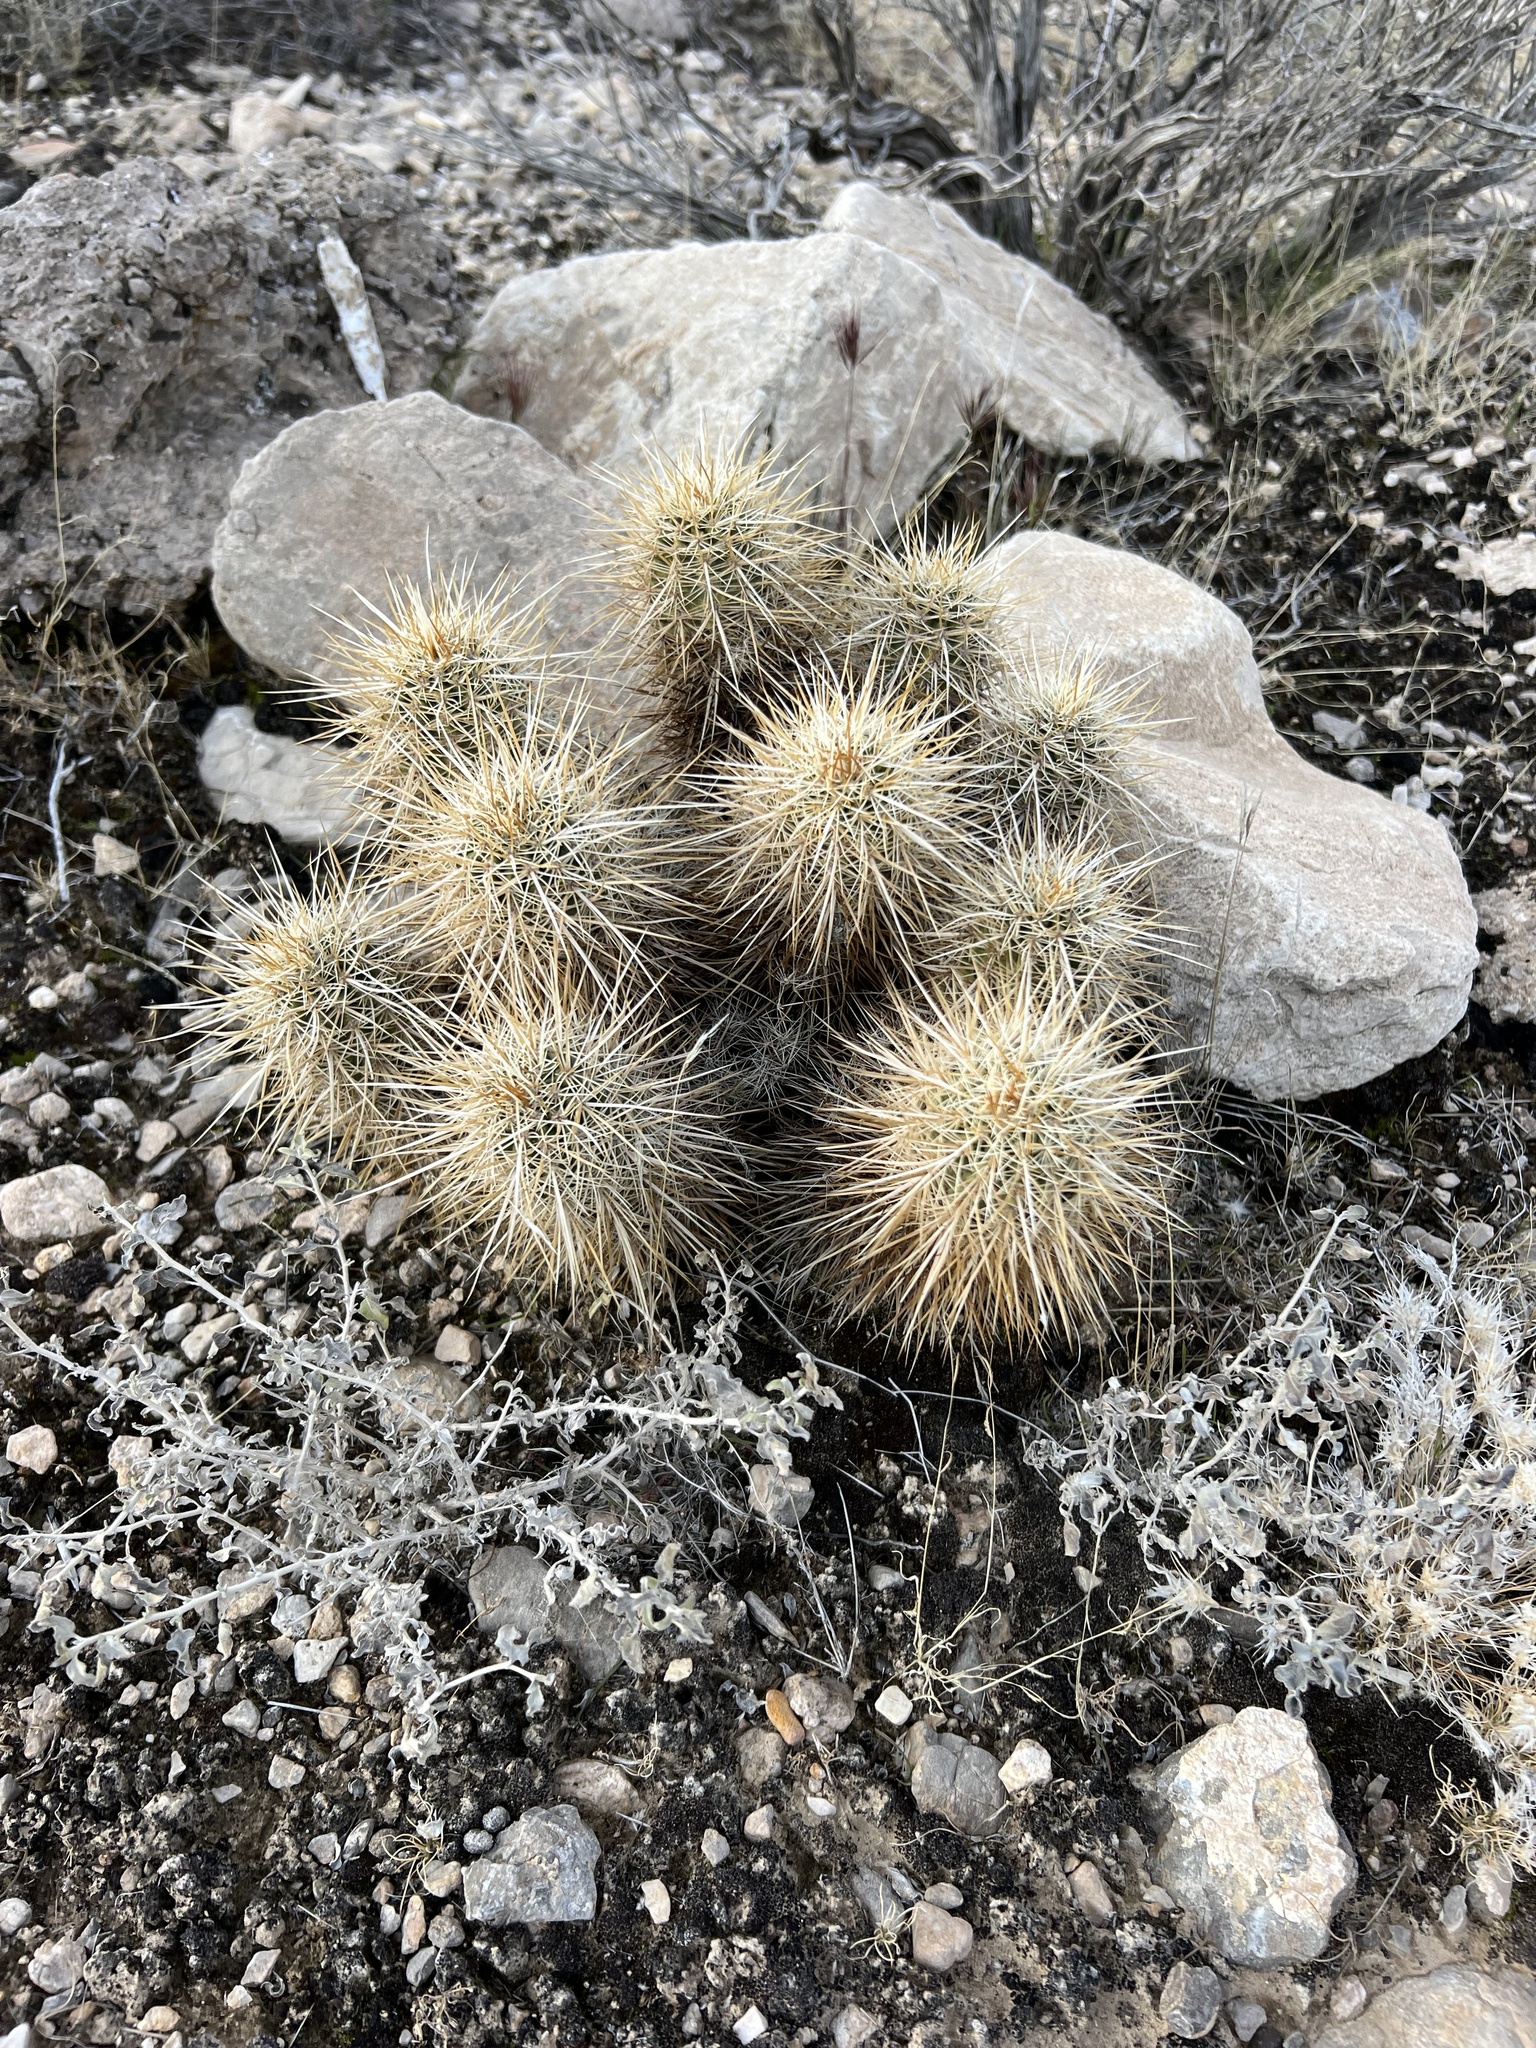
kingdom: Plantae
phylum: Tracheophyta
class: Magnoliopsida
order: Caryophyllales
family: Cactaceae
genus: Echinocereus
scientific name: Echinocereus engelmannii
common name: Engelmann's hedgehog cactus
